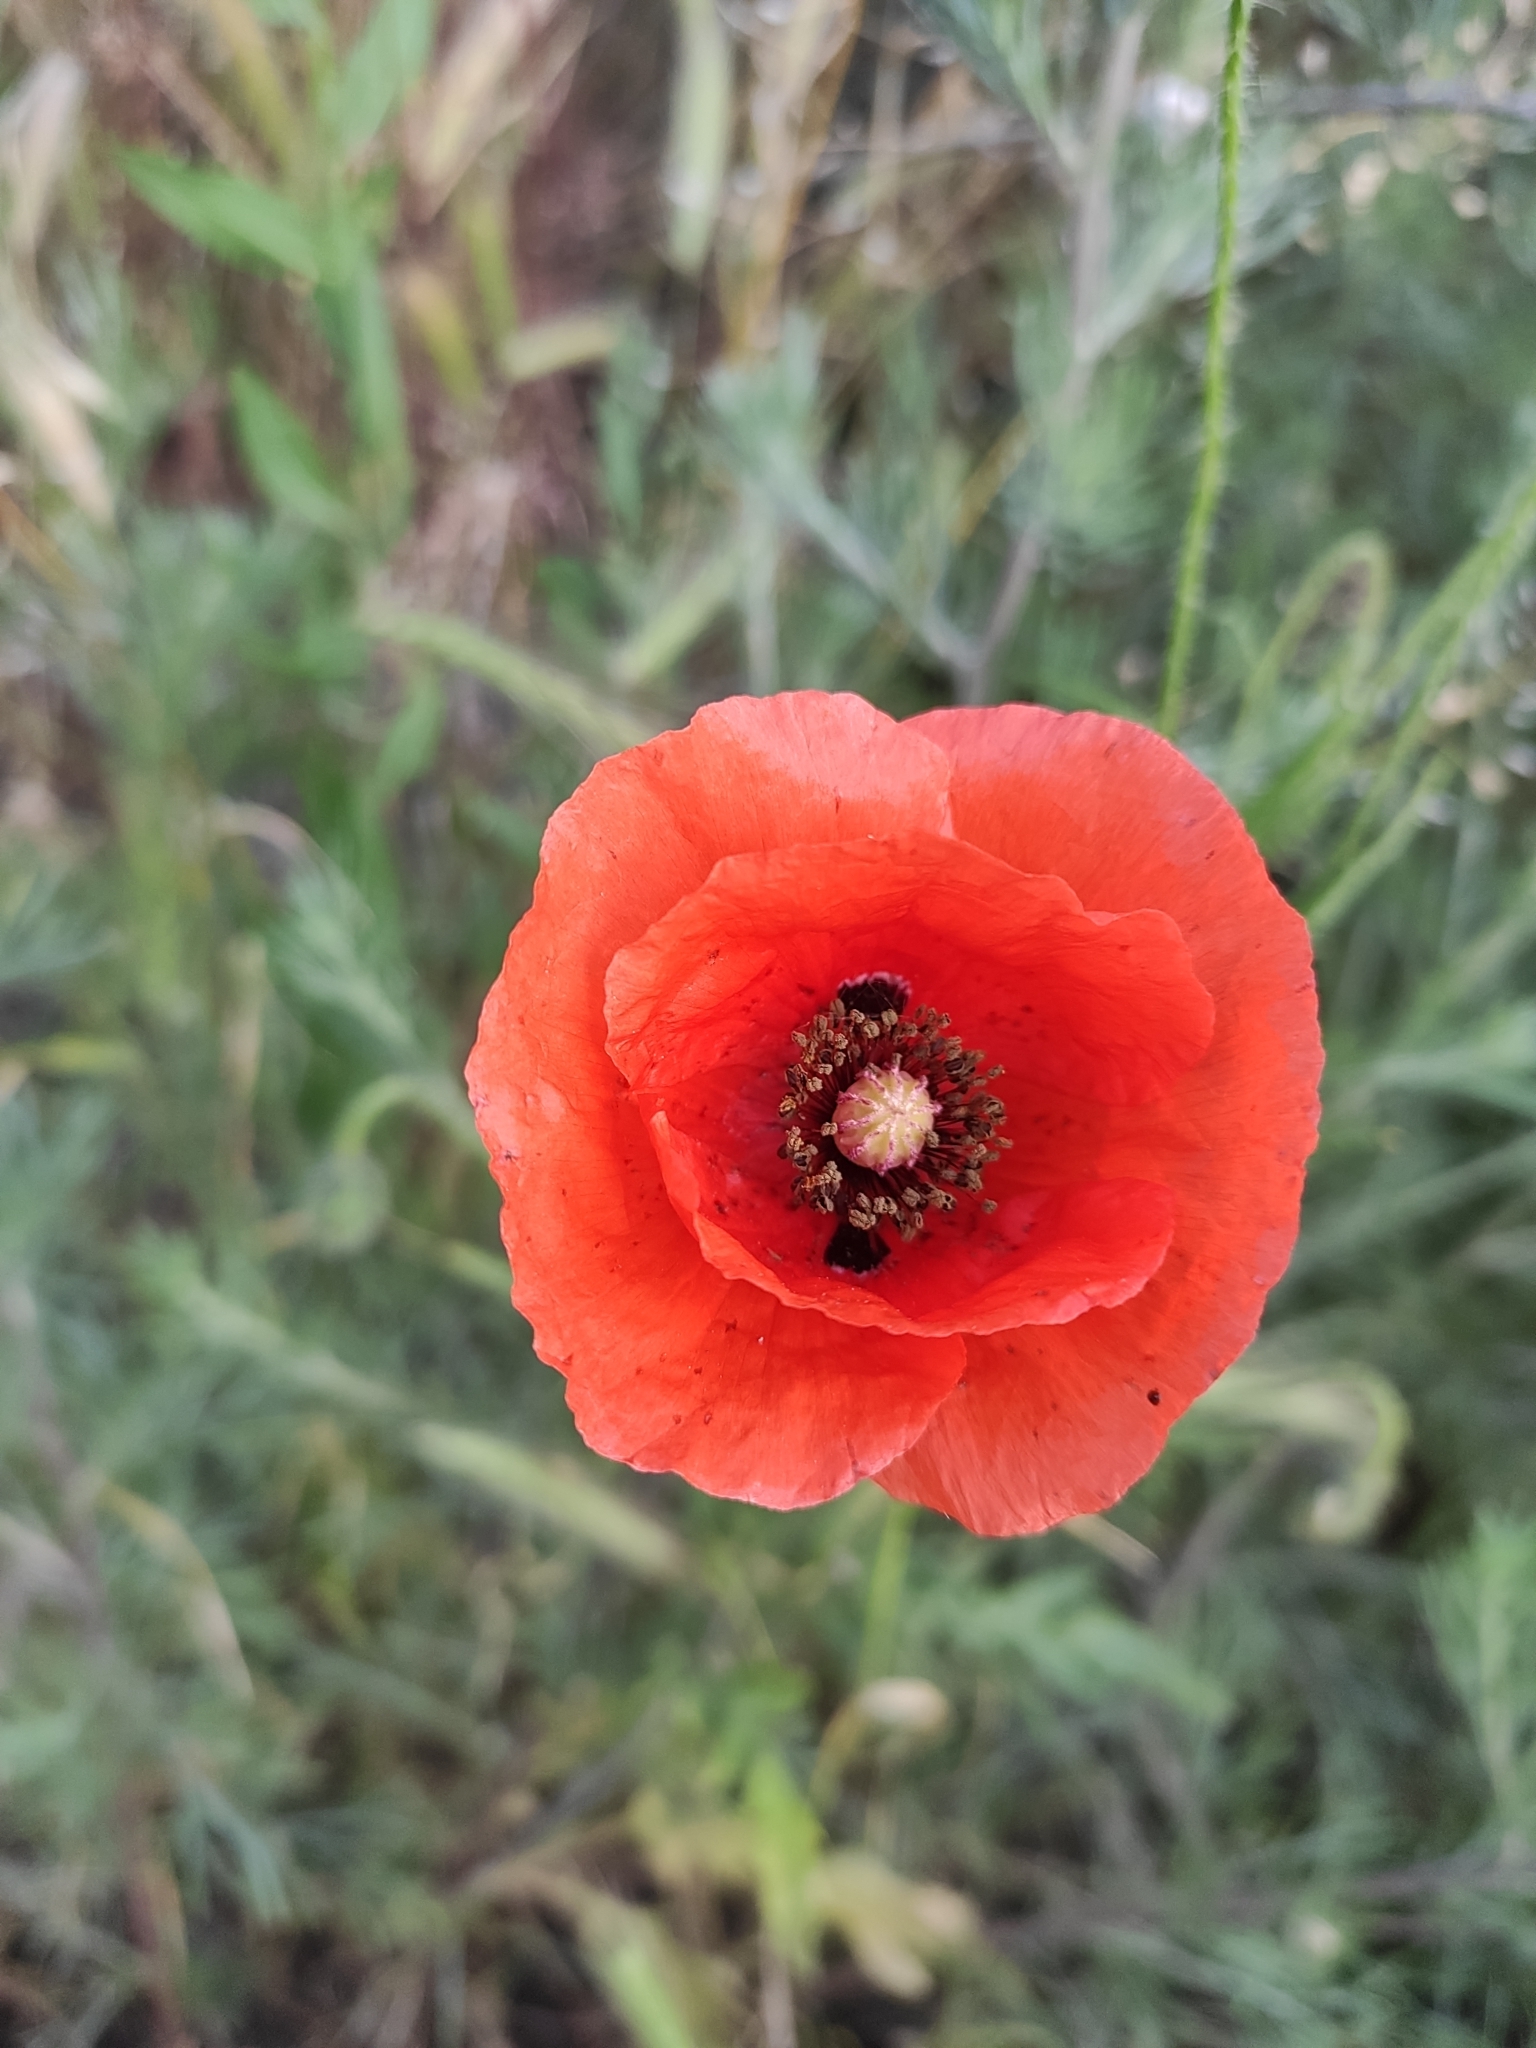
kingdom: Plantae
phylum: Tracheophyta
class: Magnoliopsida
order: Ranunculales
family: Papaveraceae
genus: Papaver
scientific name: Papaver rhoeas
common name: Corn poppy
